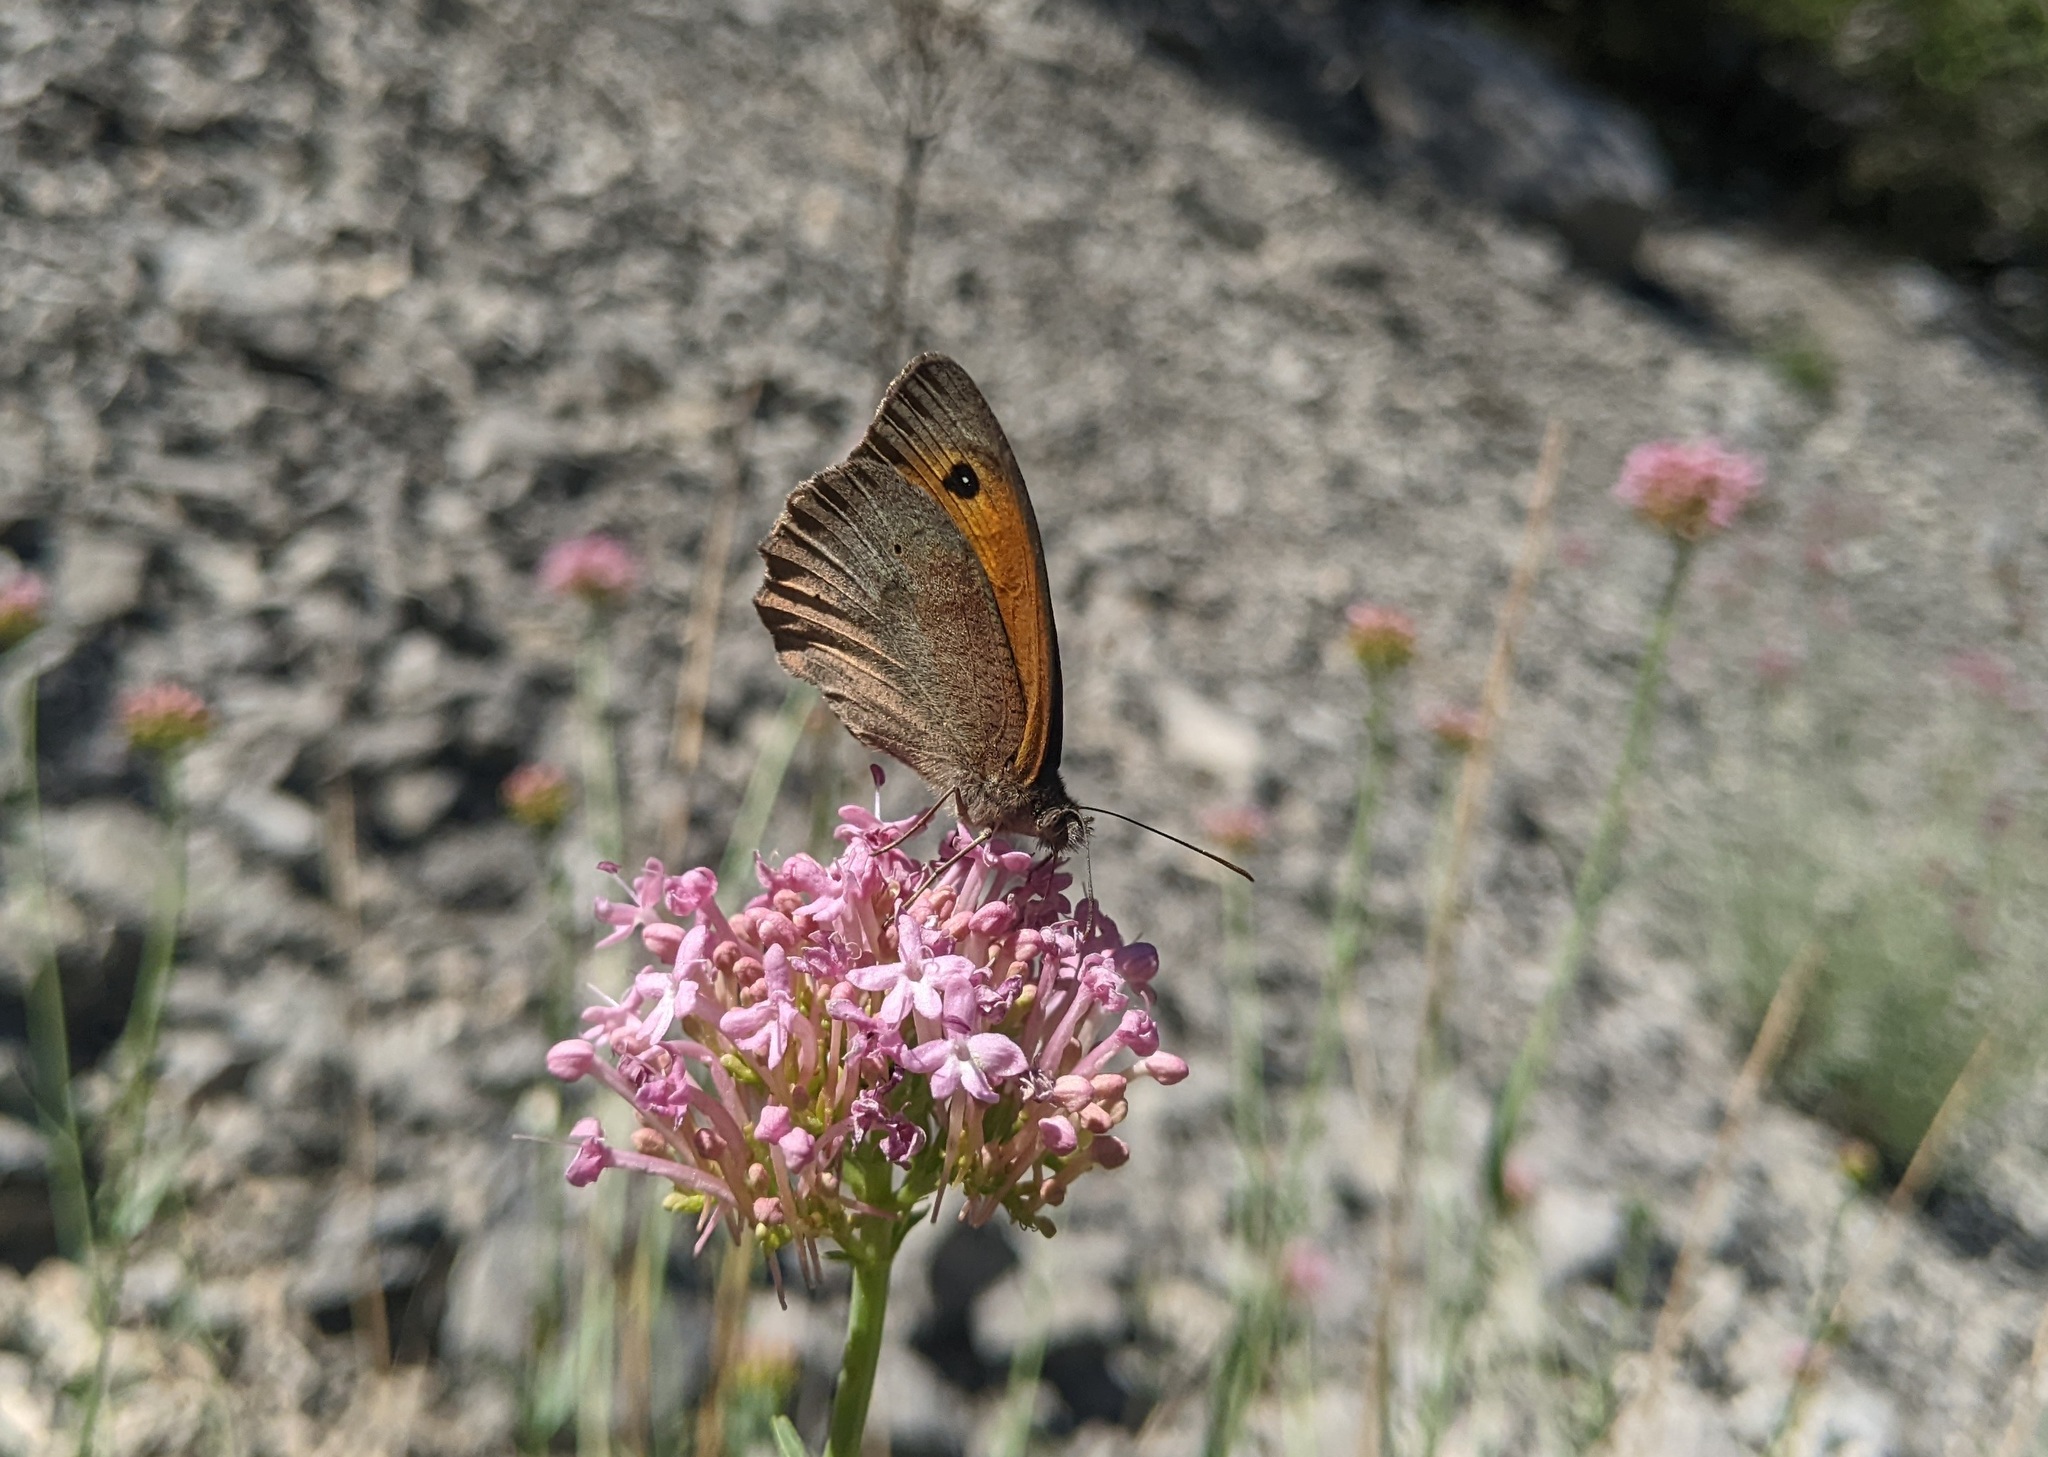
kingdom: Animalia
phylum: Arthropoda
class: Insecta
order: Lepidoptera
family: Nymphalidae
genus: Maniola
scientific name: Maniola jurtina
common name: Meadow brown
